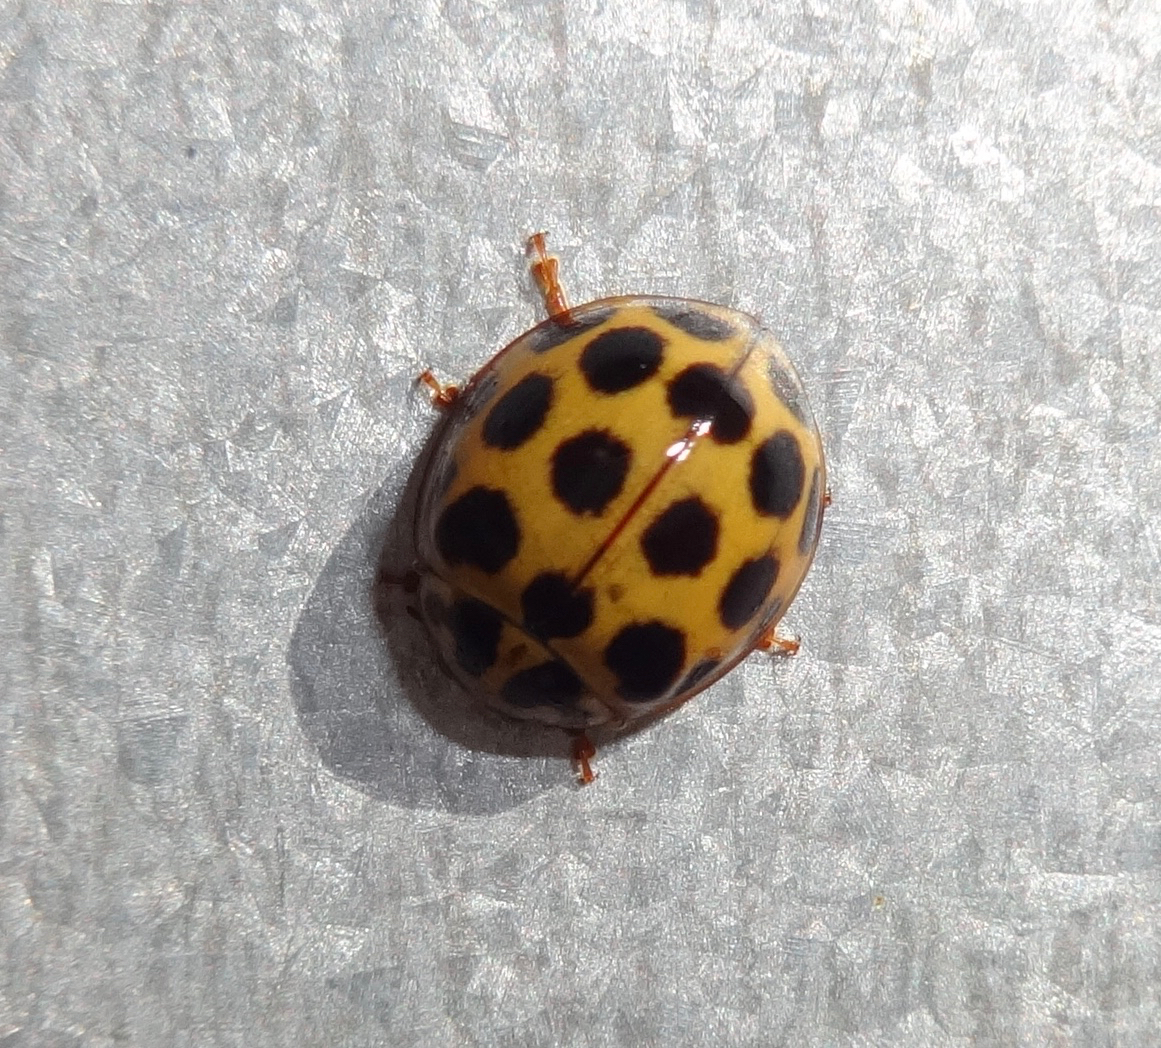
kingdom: Animalia
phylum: Arthropoda
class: Insecta
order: Coleoptera
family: Coccinellidae
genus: Harmonia
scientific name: Harmonia conformis
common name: Common spotted ladybird beetle
